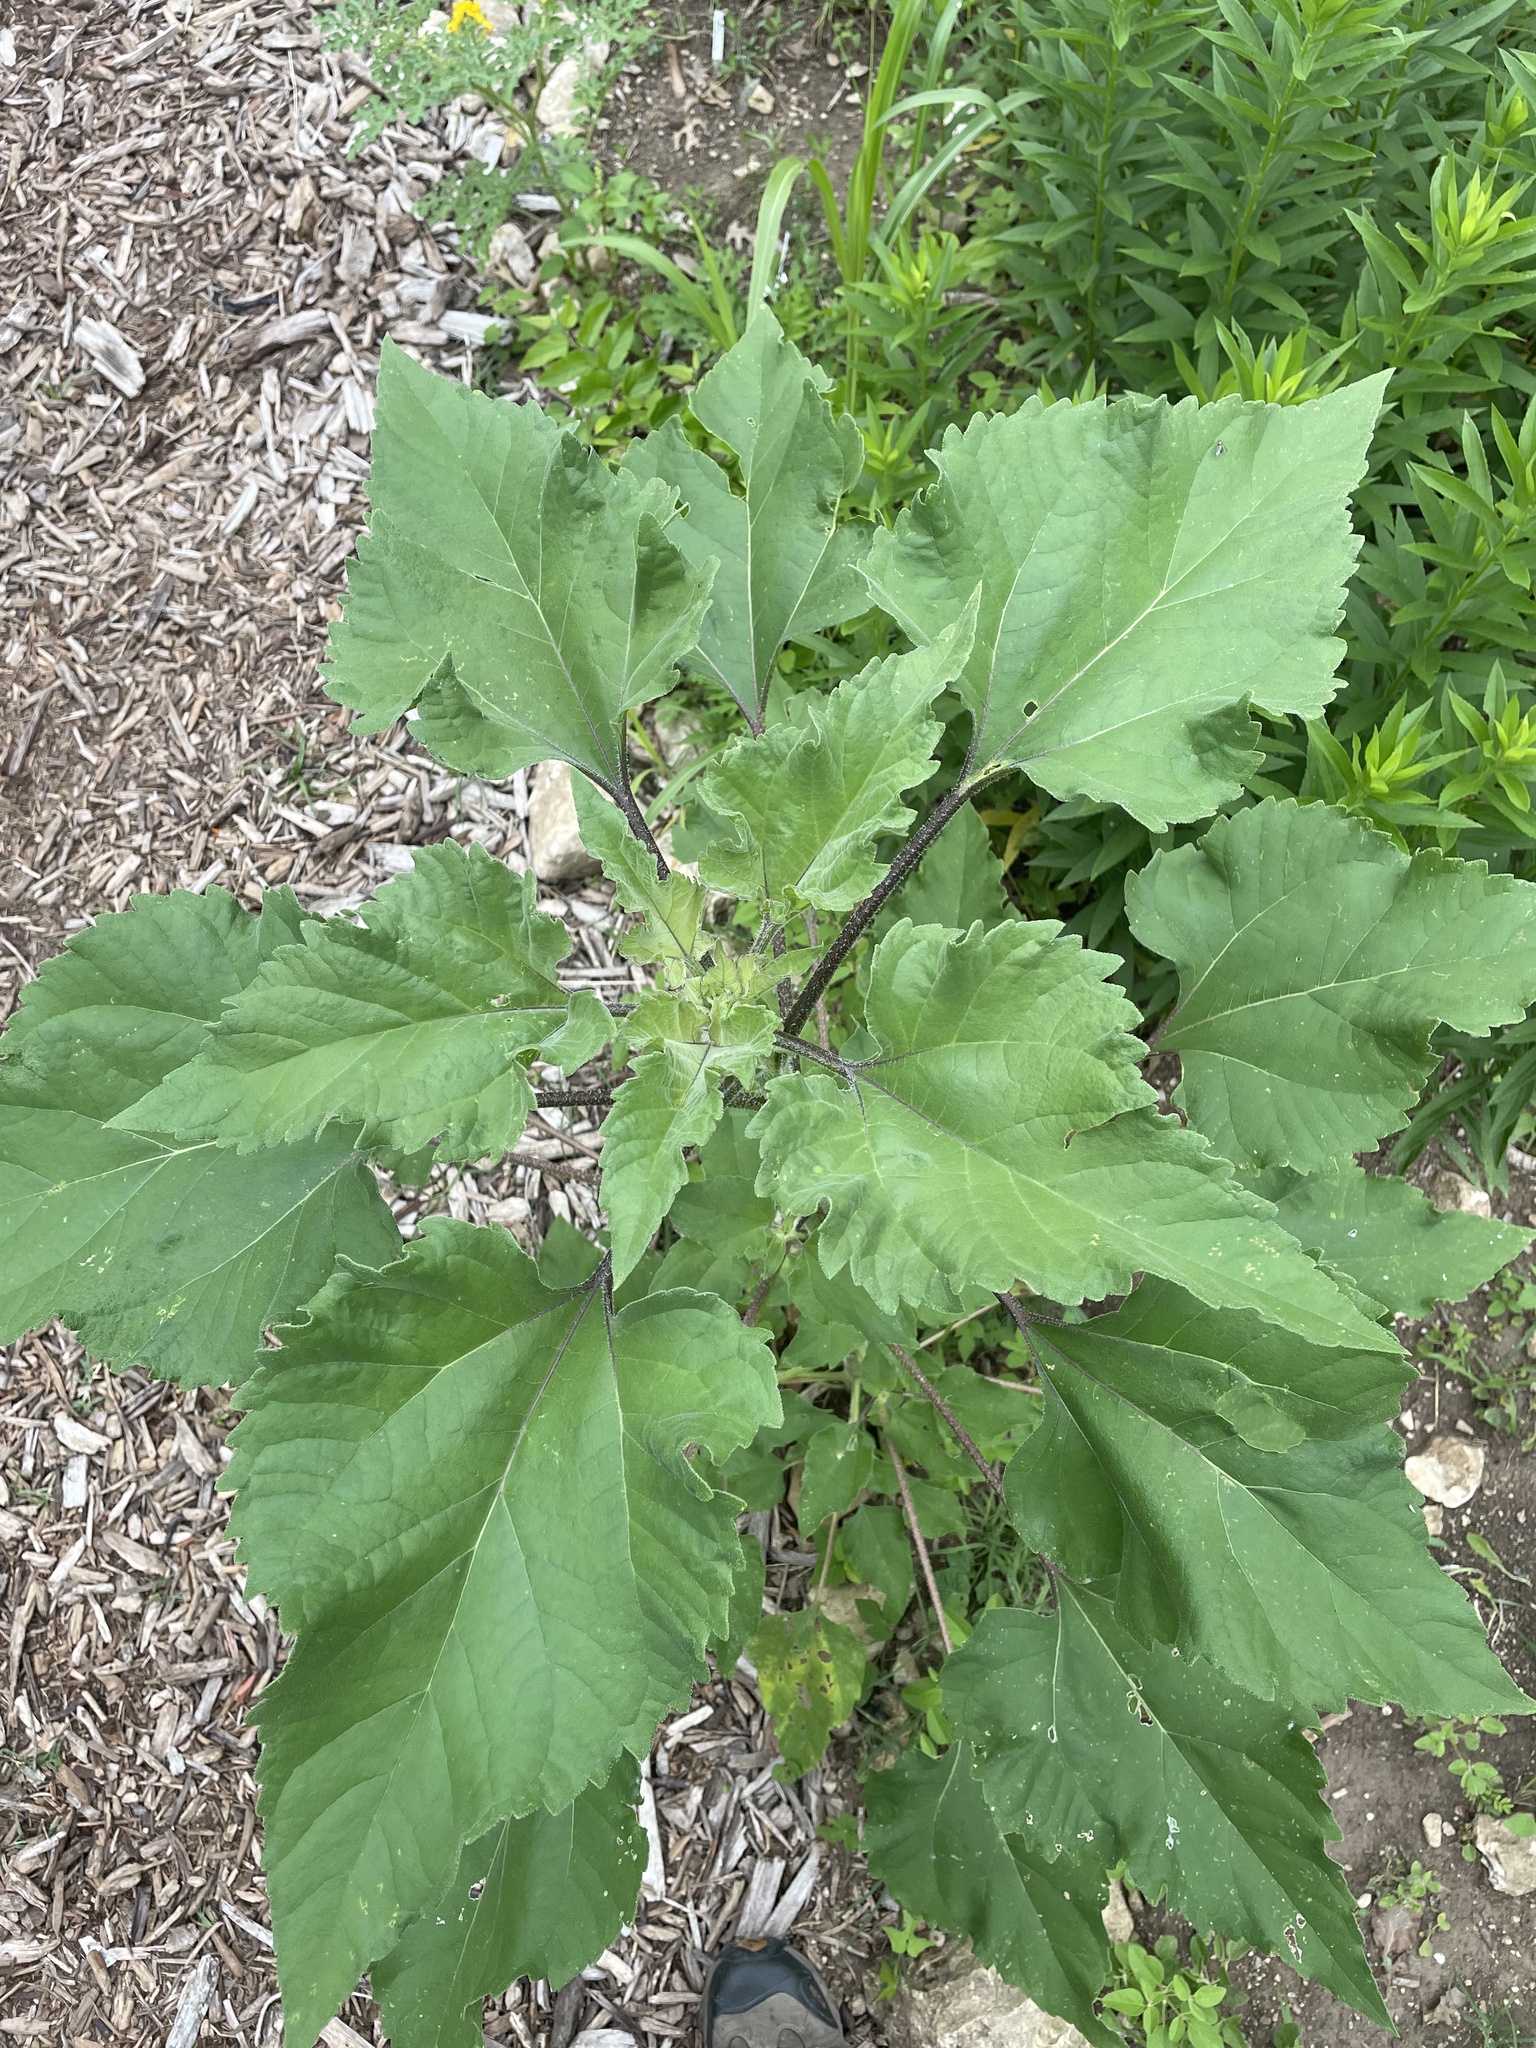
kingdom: Plantae
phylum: Tracheophyta
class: Magnoliopsida
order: Asterales
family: Asteraceae
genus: Helianthus
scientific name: Helianthus annuus
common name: Sunflower
